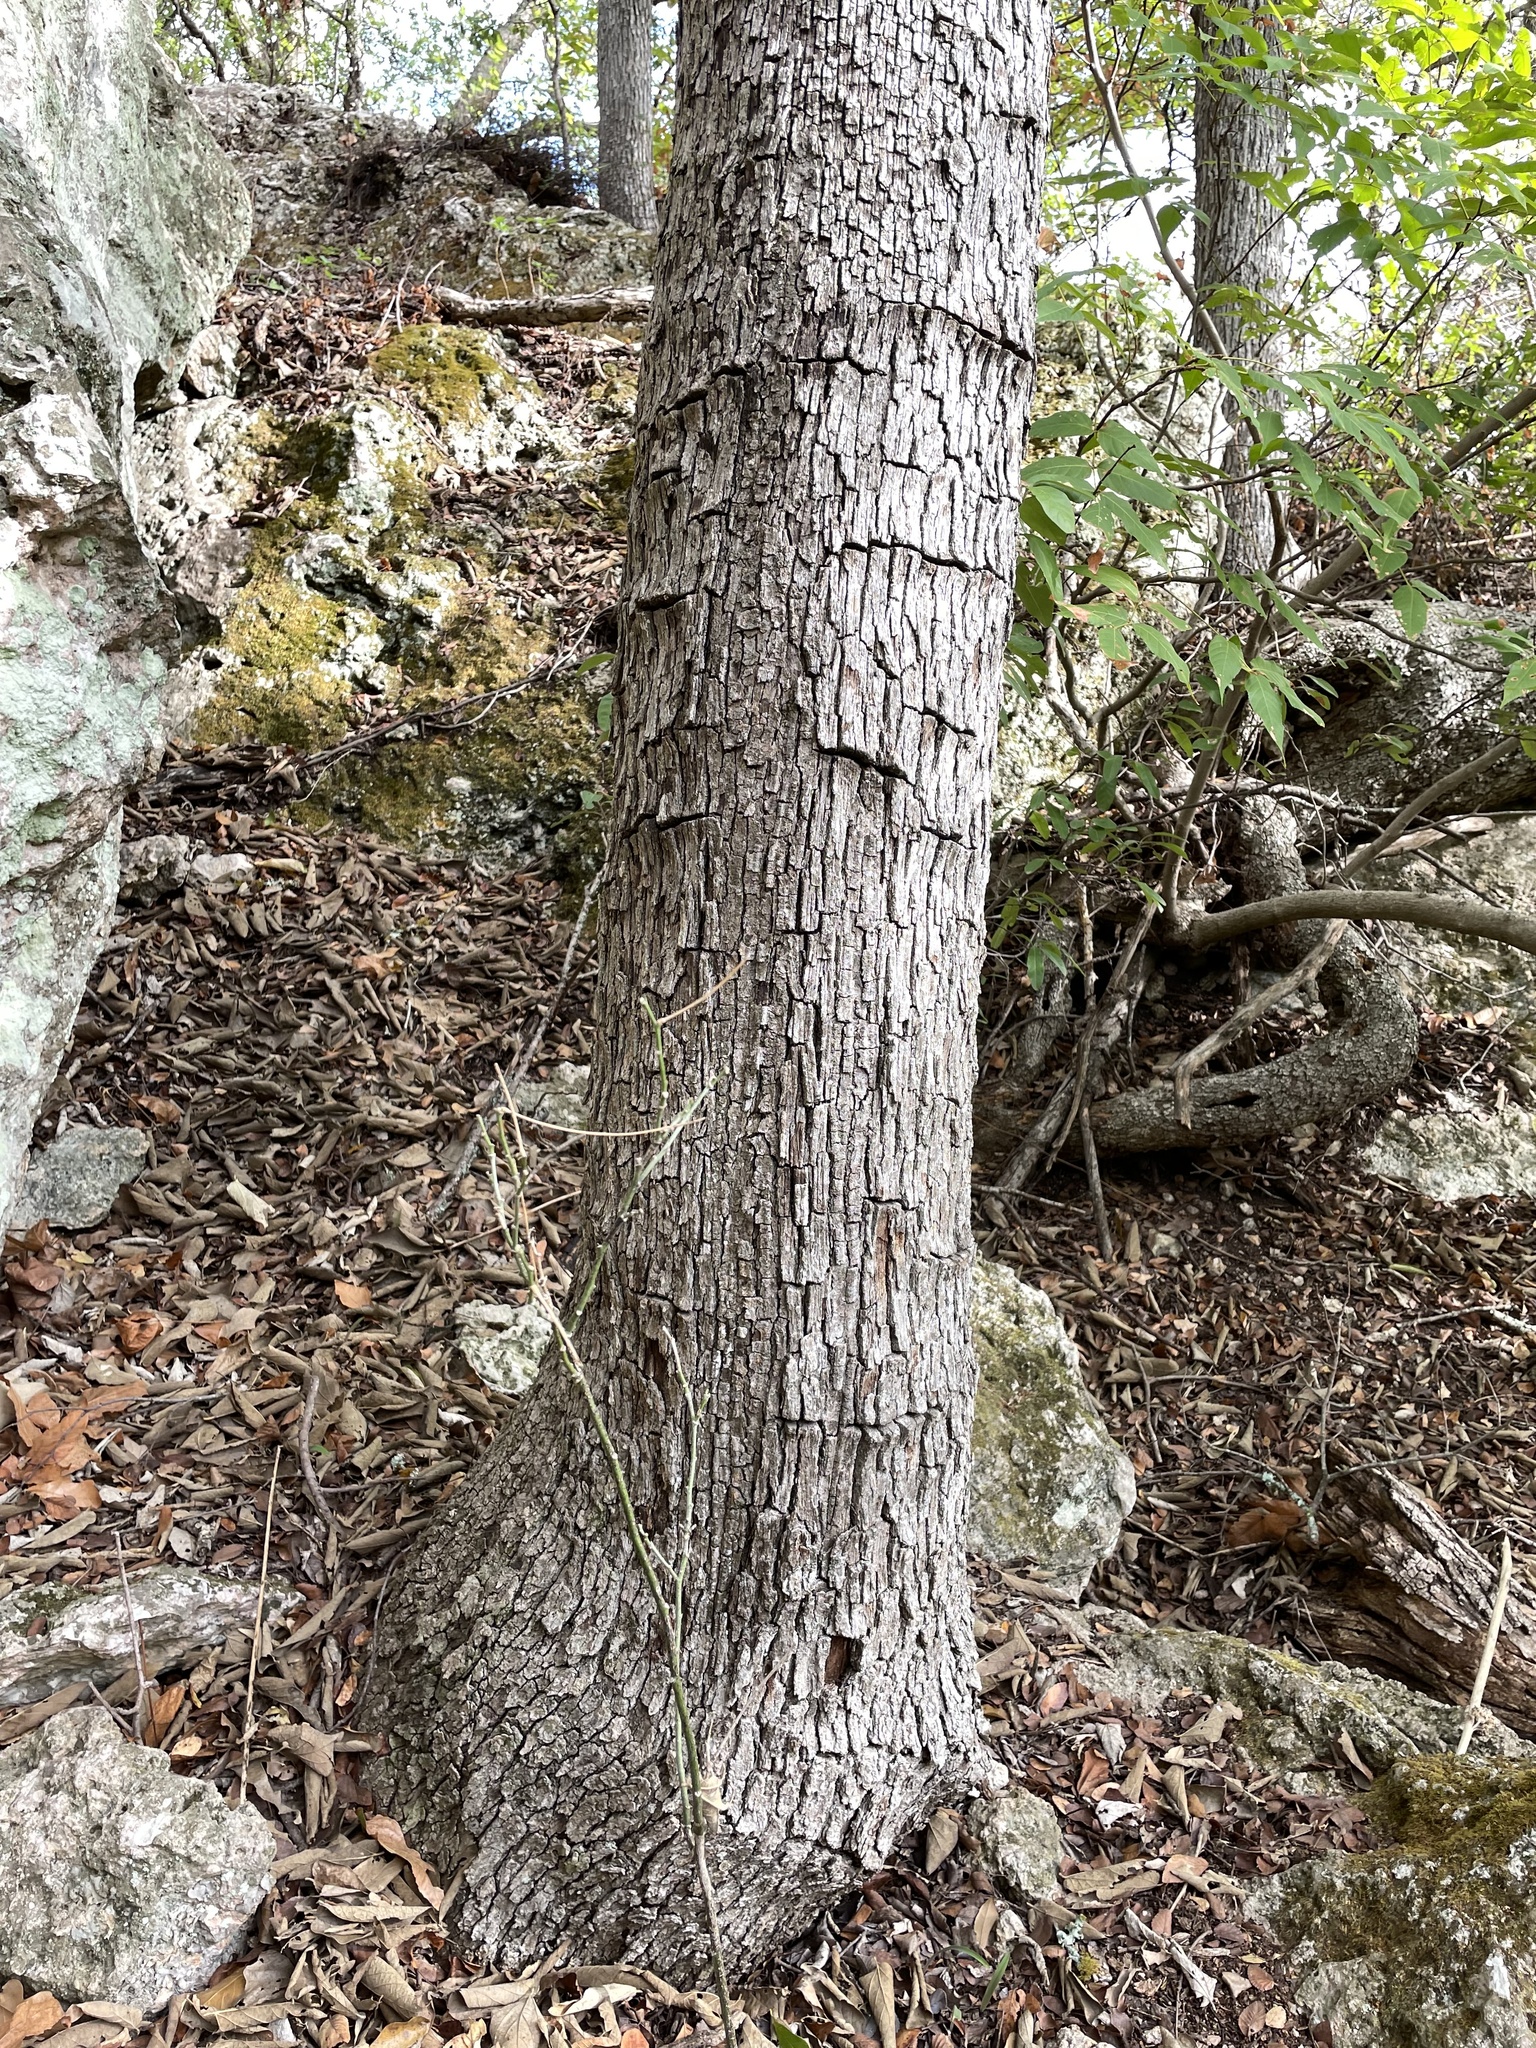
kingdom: Plantae
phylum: Tracheophyta
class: Magnoliopsida
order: Fagales
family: Fagaceae
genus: Quercus
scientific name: Quercus sinuata
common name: Durand oak
